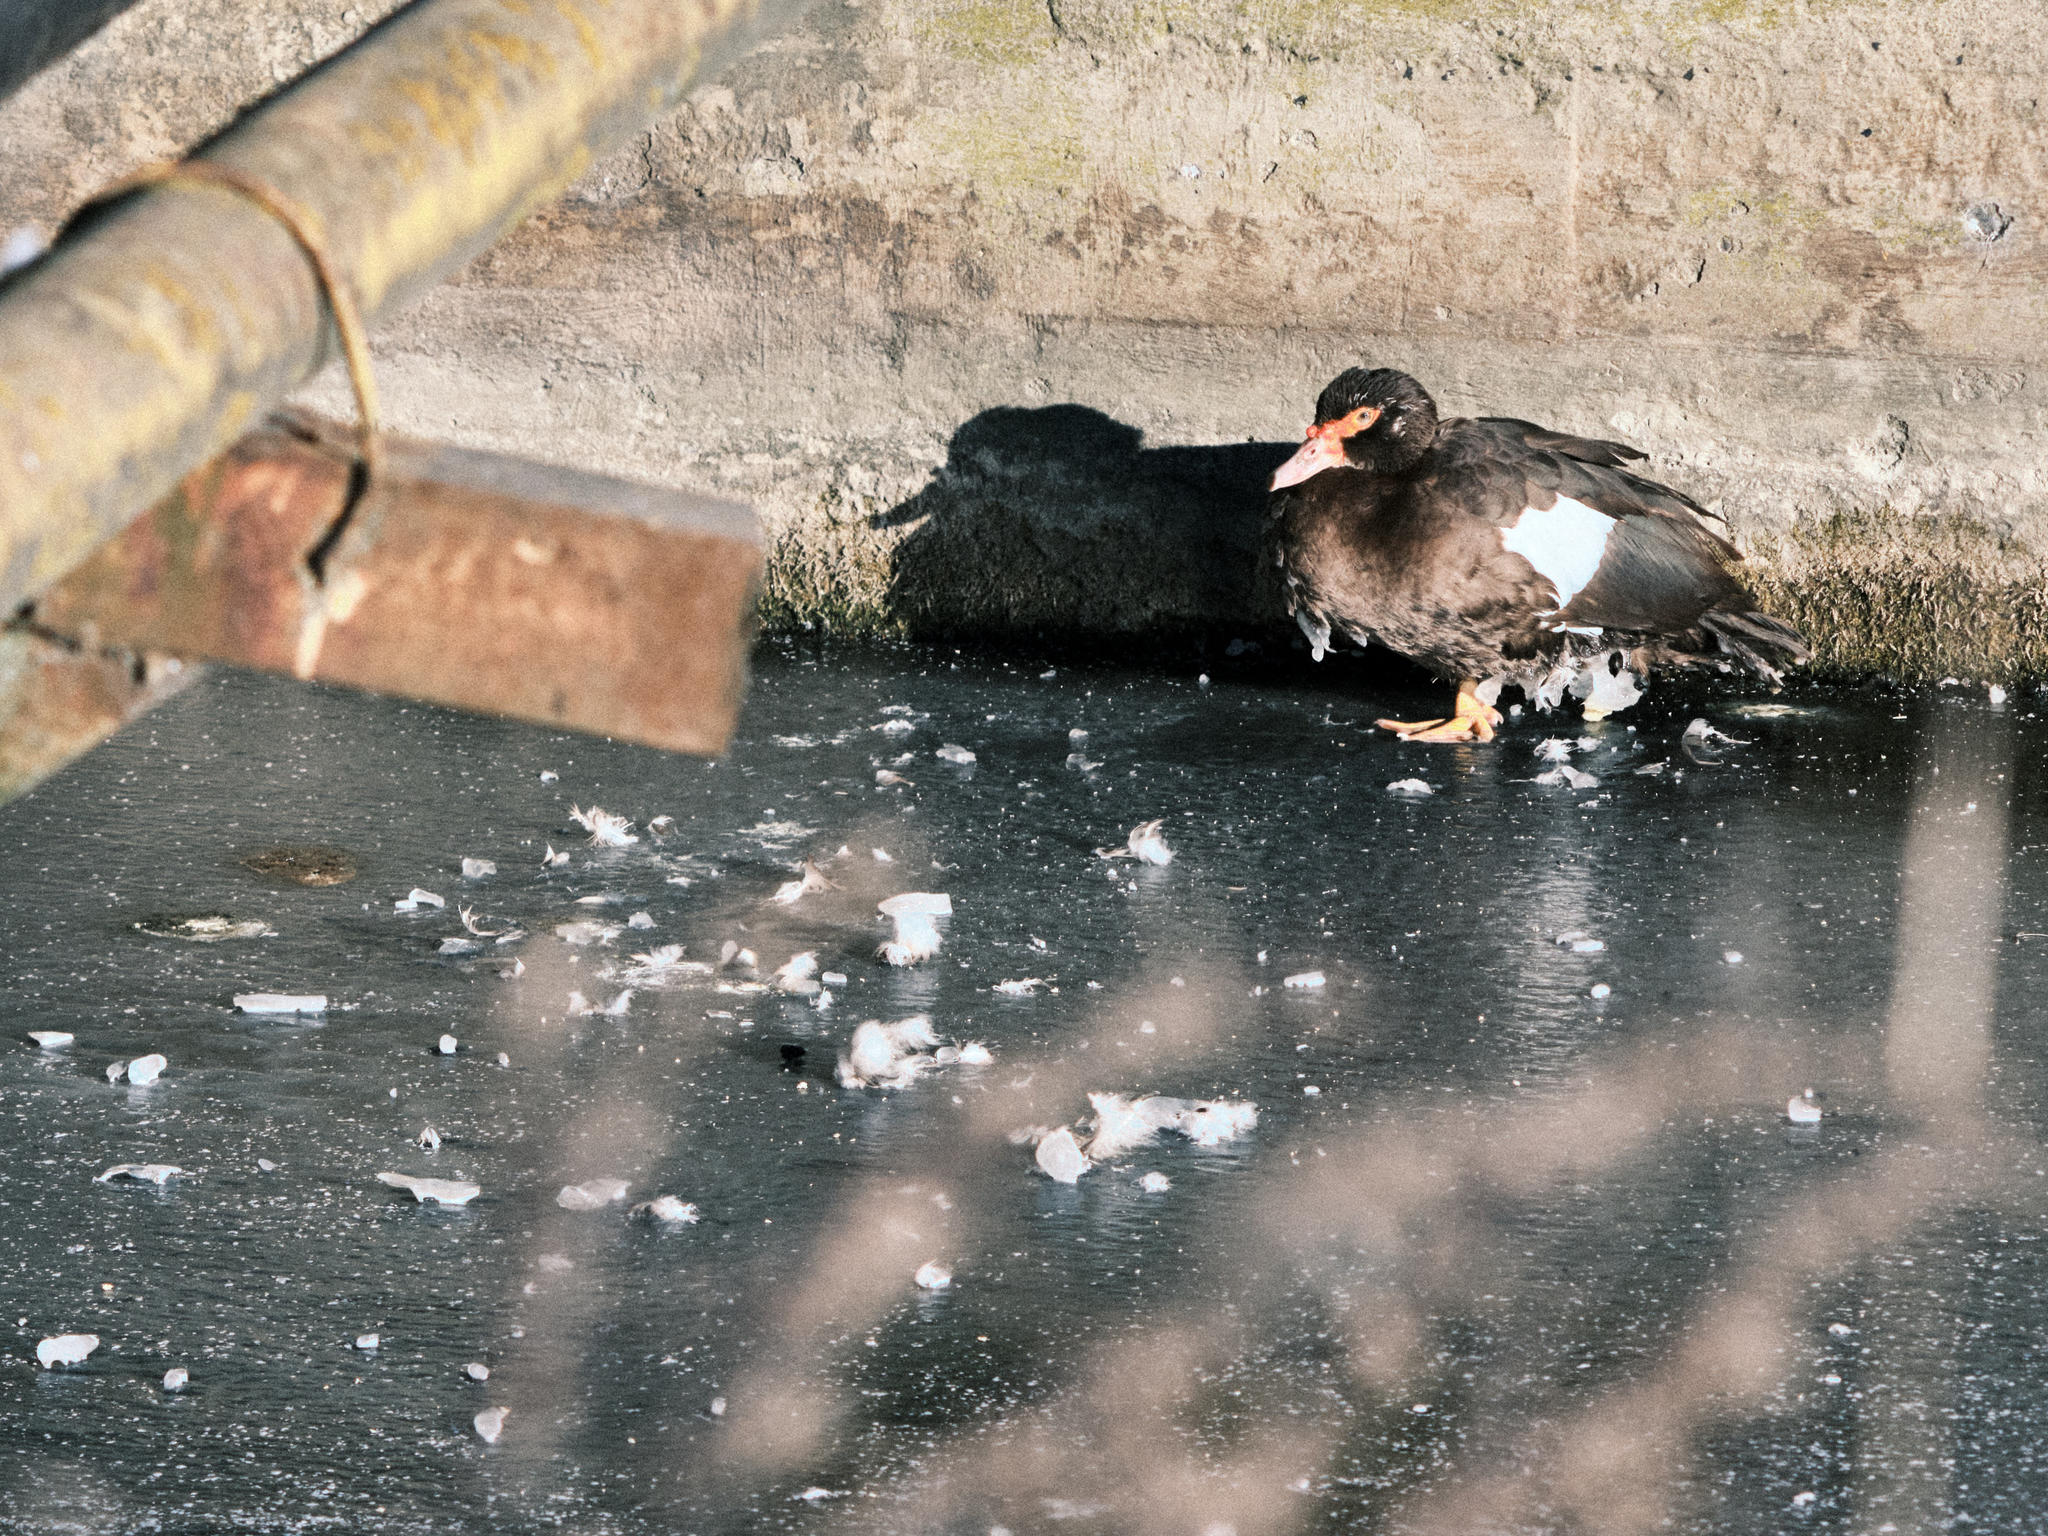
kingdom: Animalia
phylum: Chordata
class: Aves
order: Anseriformes
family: Anatidae
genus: Cairina
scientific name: Cairina moschata
